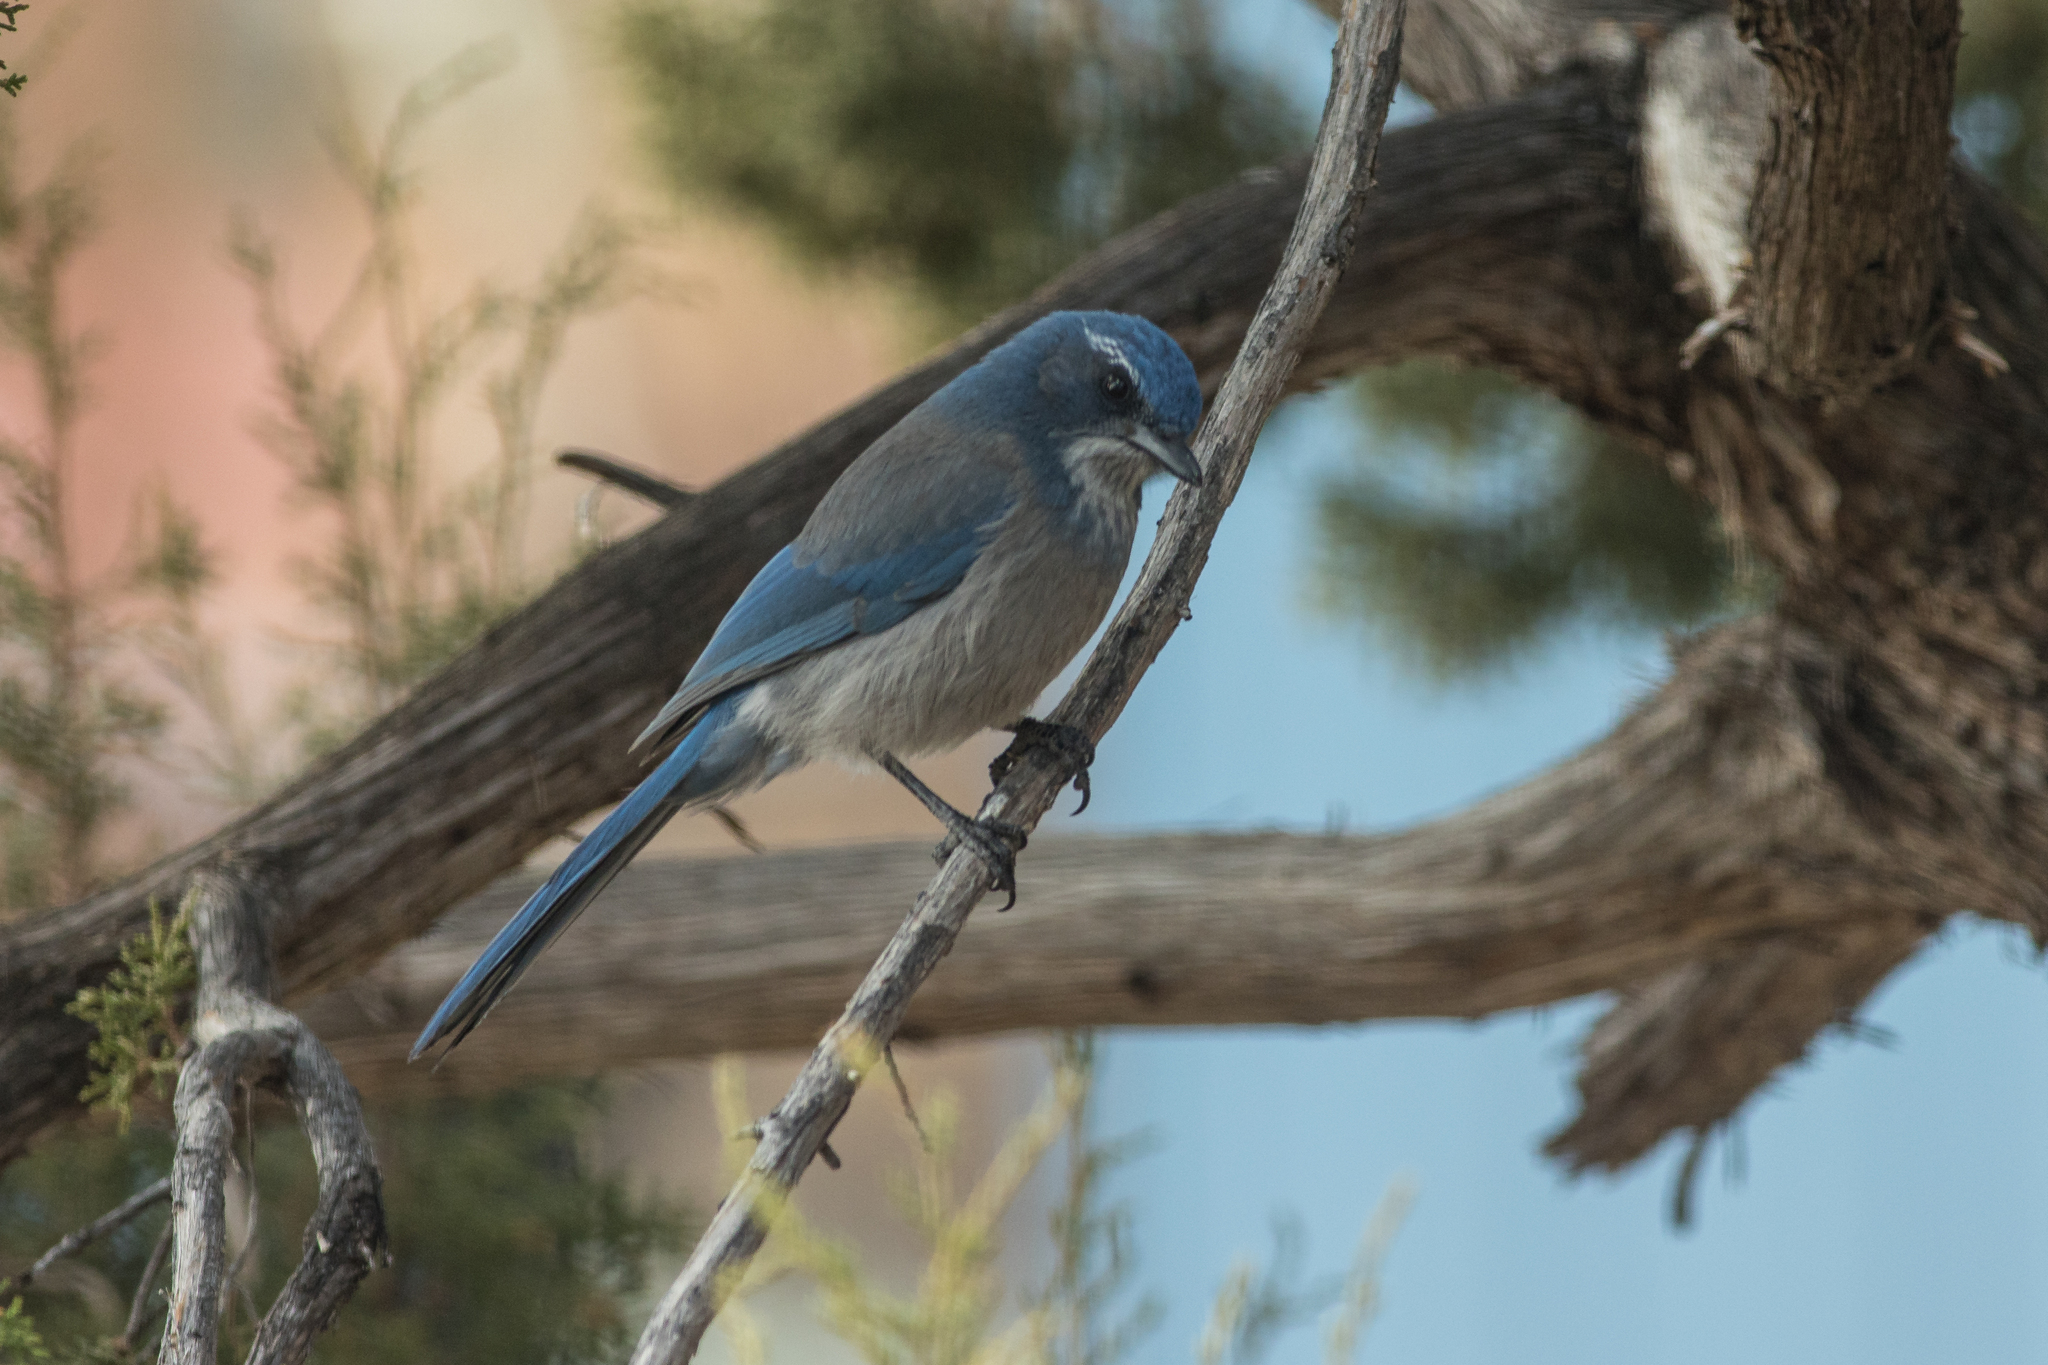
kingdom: Animalia
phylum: Chordata
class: Aves
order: Passeriformes
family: Corvidae
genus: Aphelocoma
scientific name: Aphelocoma woodhouseii
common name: Woodhouse's scrub-jay
